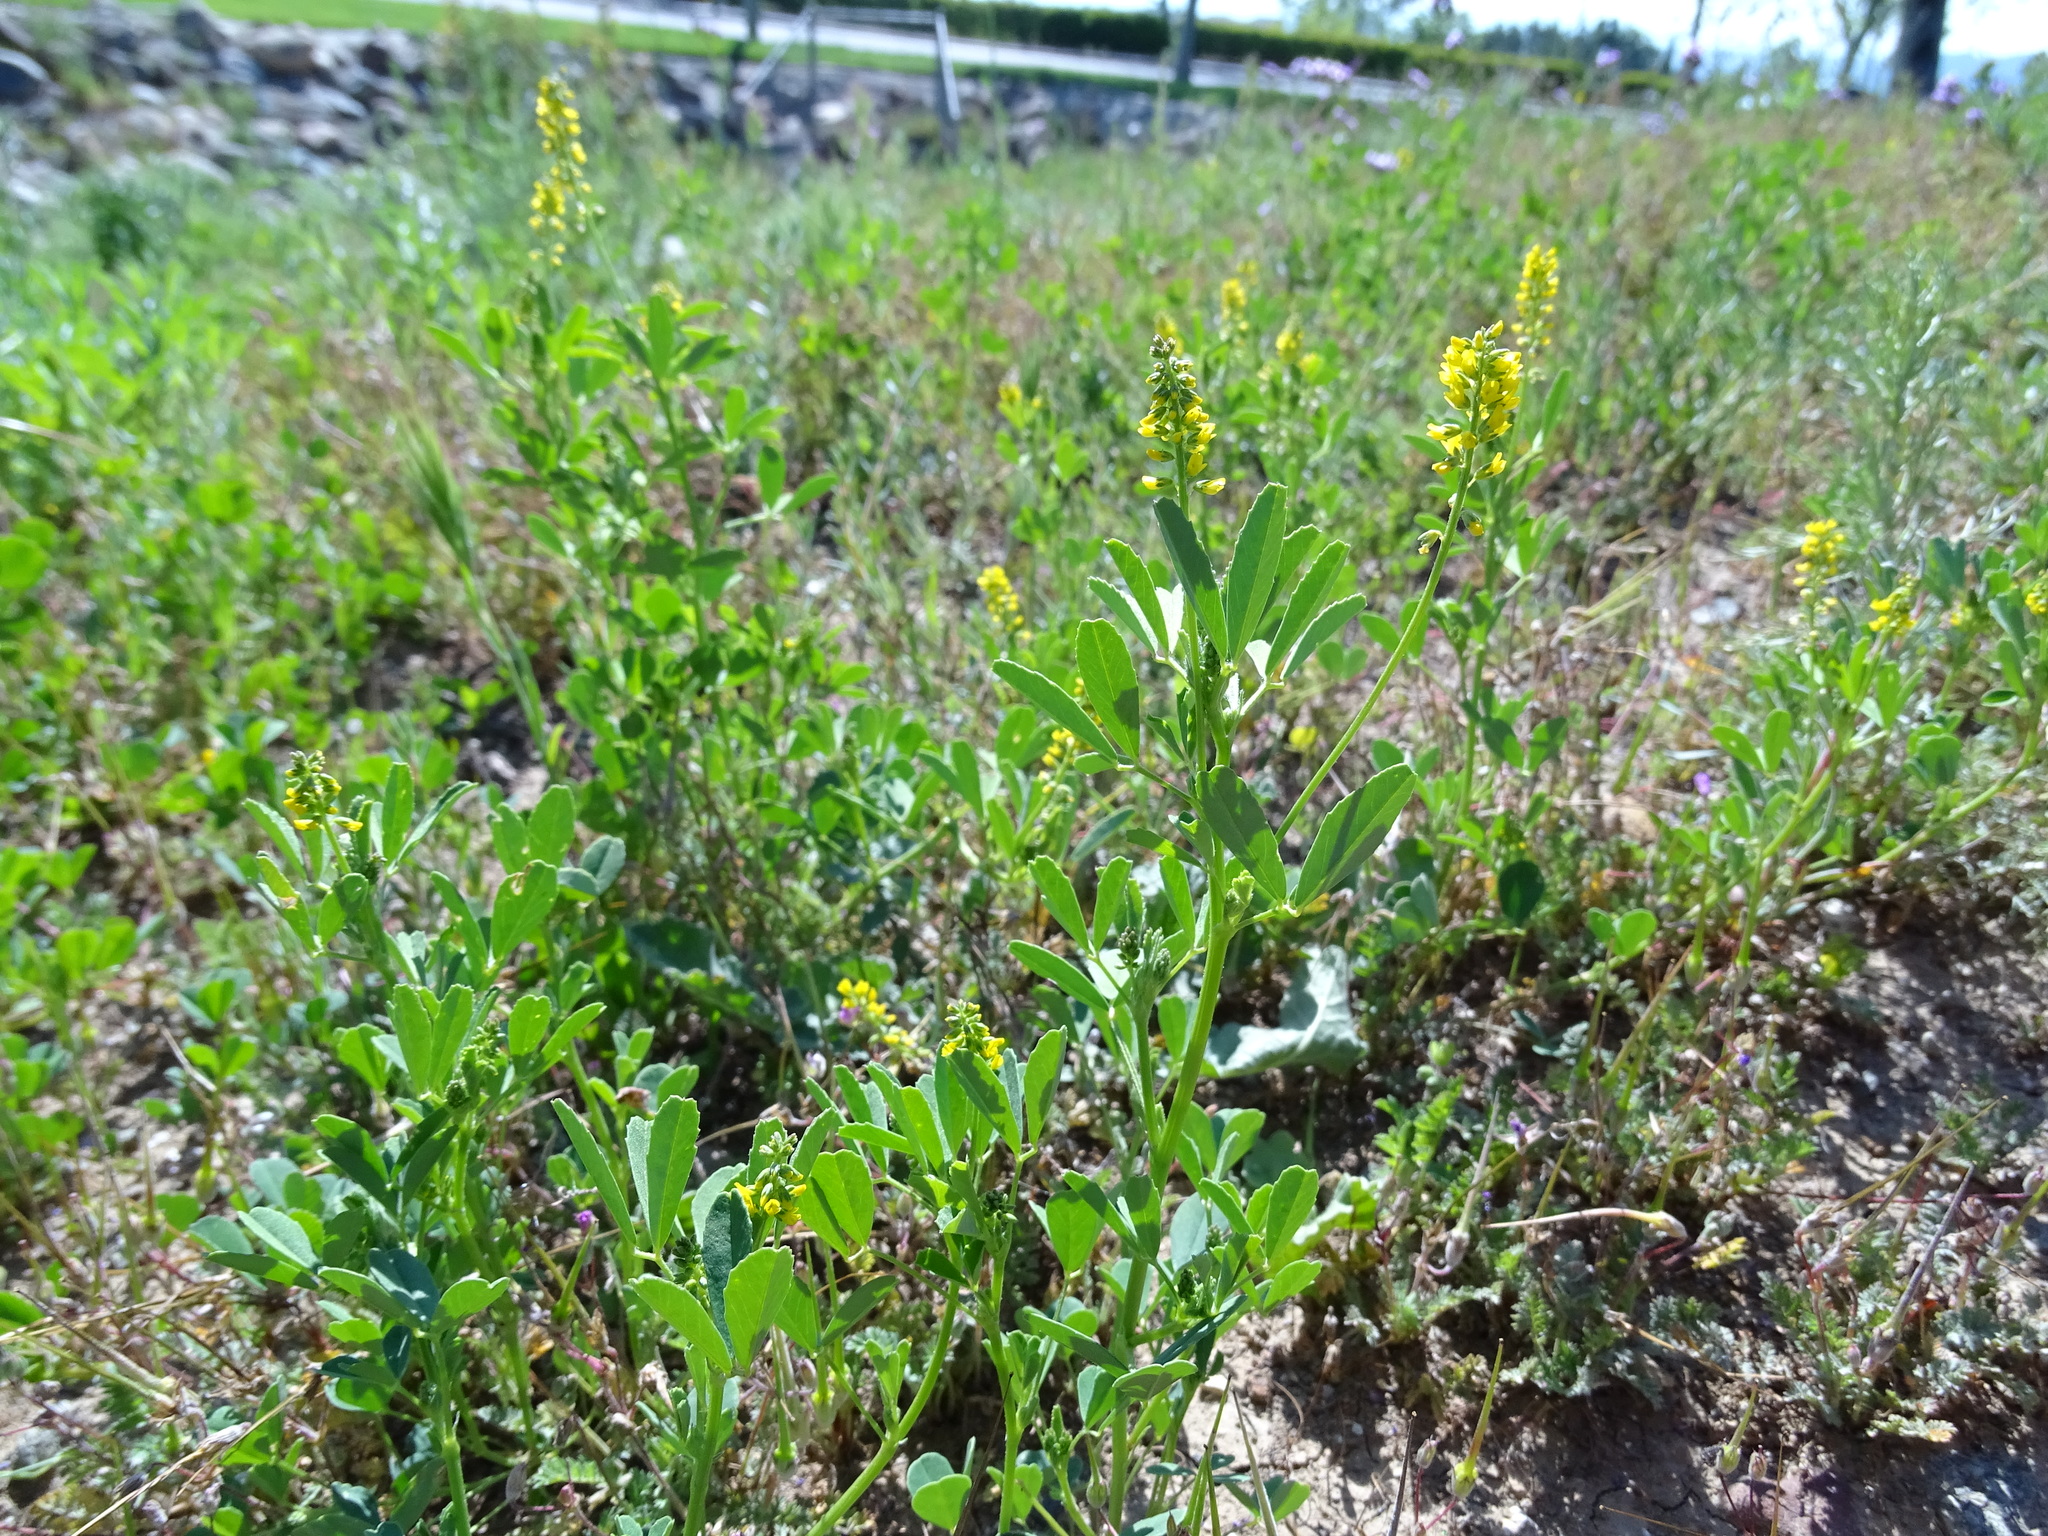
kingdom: Plantae
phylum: Tracheophyta
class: Magnoliopsida
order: Fabales
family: Fabaceae
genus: Melilotus
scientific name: Melilotus indicus
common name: Small melilot
